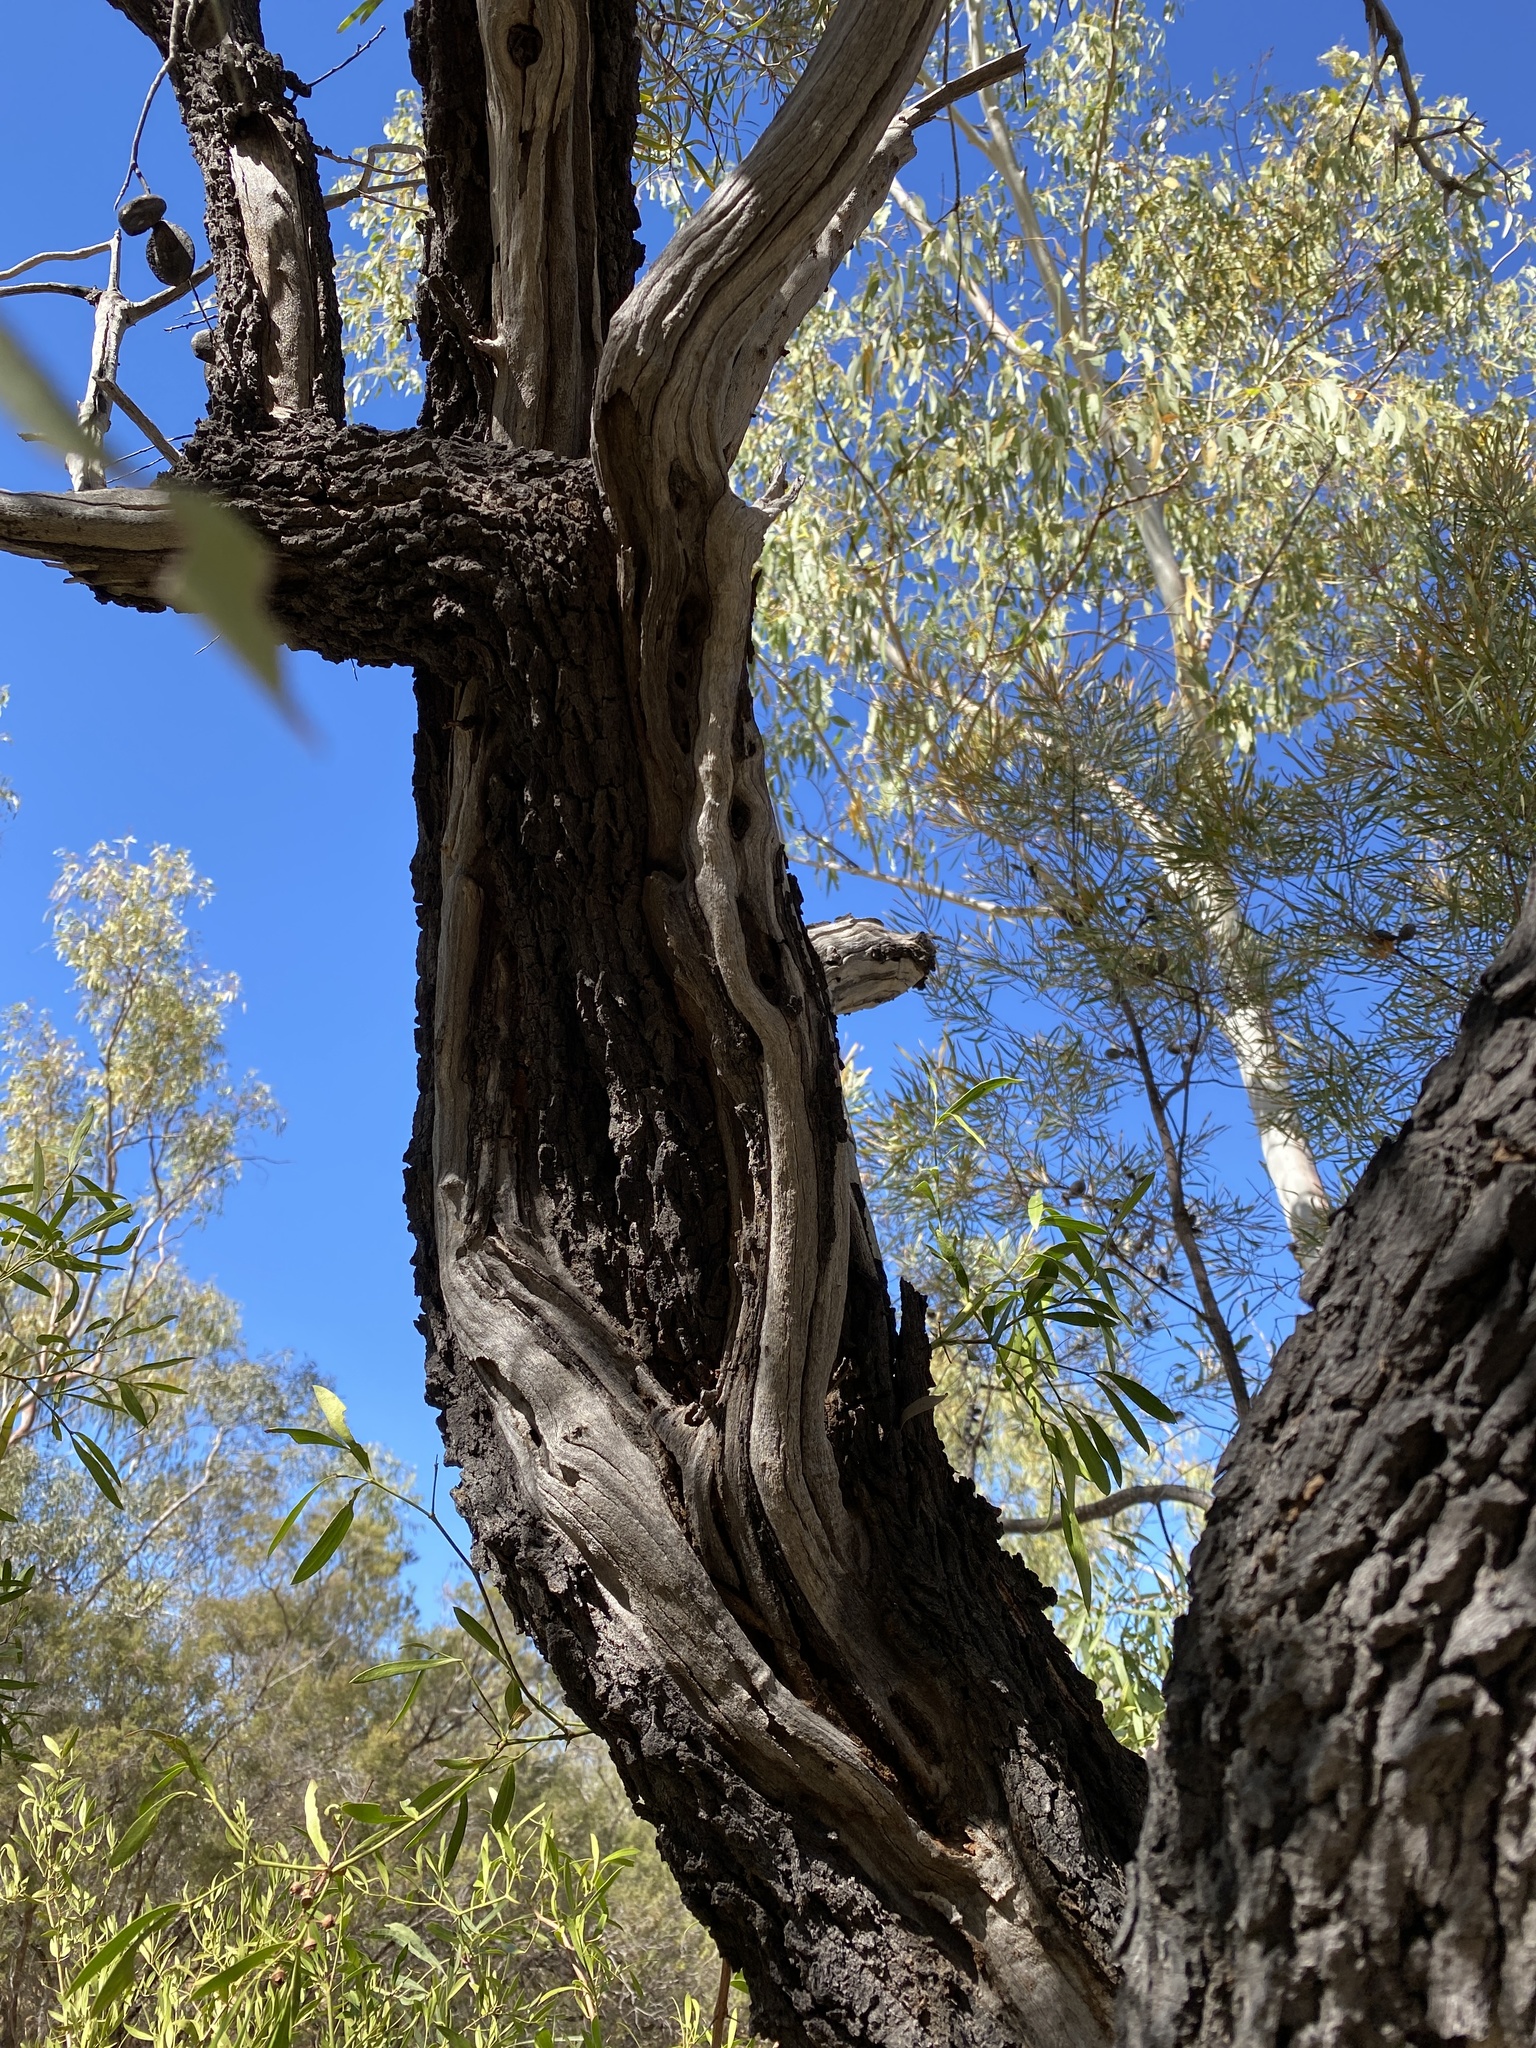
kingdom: Plantae
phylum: Tracheophyta
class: Magnoliopsida
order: Proteales
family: Proteaceae
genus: Hakea
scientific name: Hakea arborescens
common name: Yellow hakea
